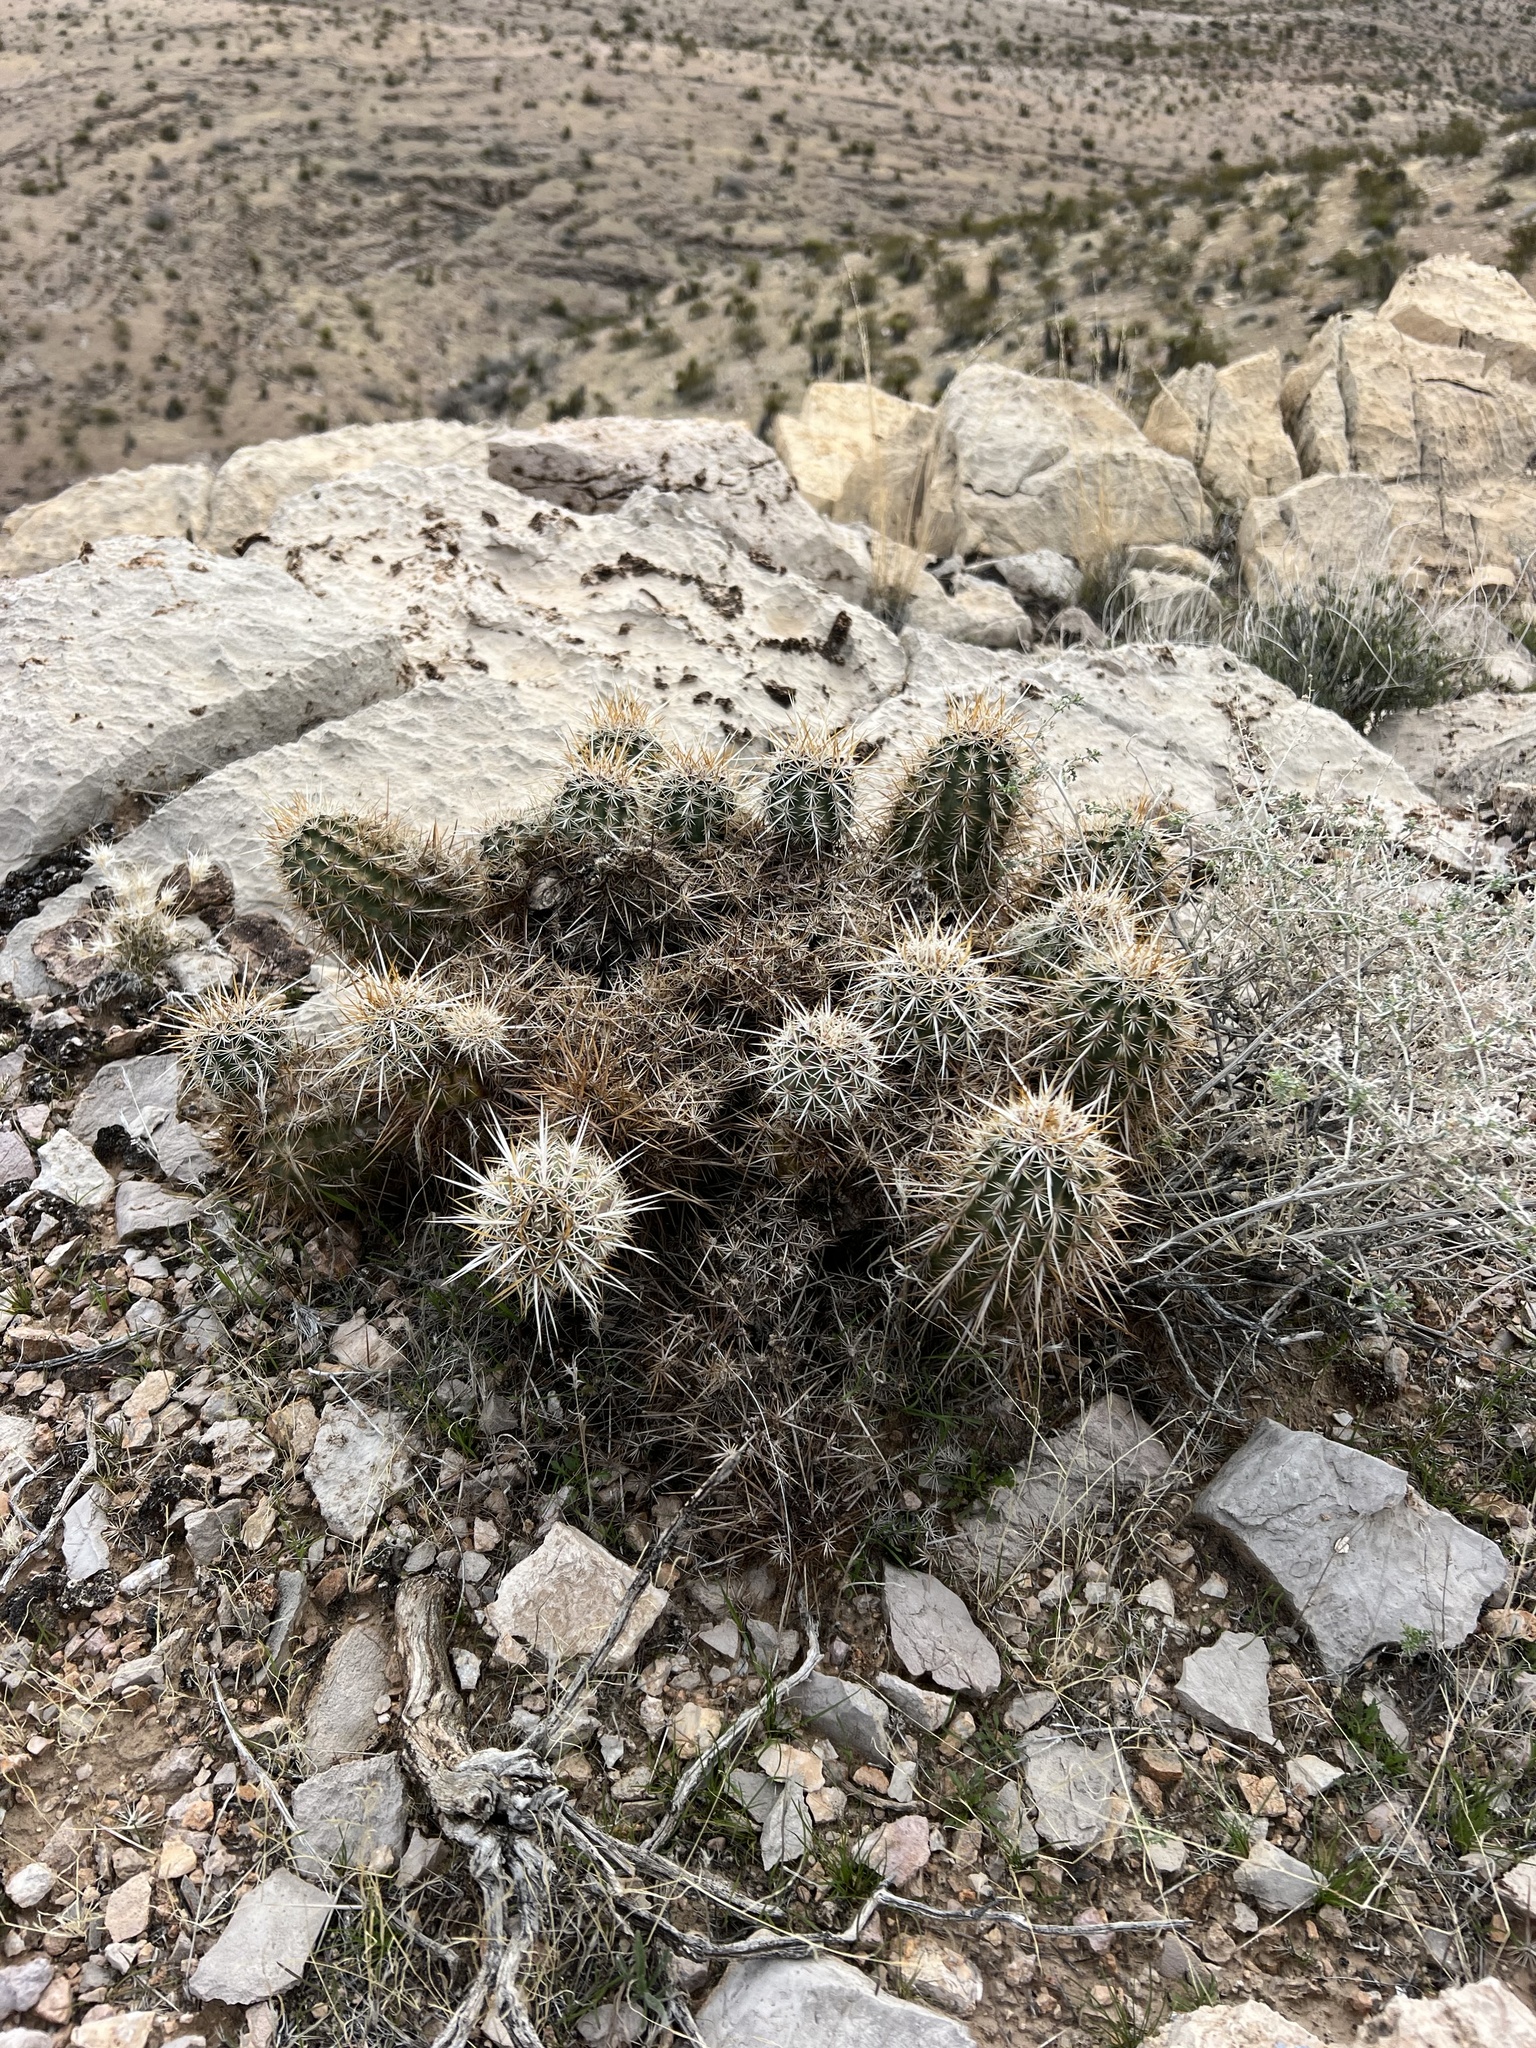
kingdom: Plantae
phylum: Tracheophyta
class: Magnoliopsida
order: Caryophyllales
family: Cactaceae
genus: Echinocereus
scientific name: Echinocereus engelmannii
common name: Engelmann's hedgehog cactus
